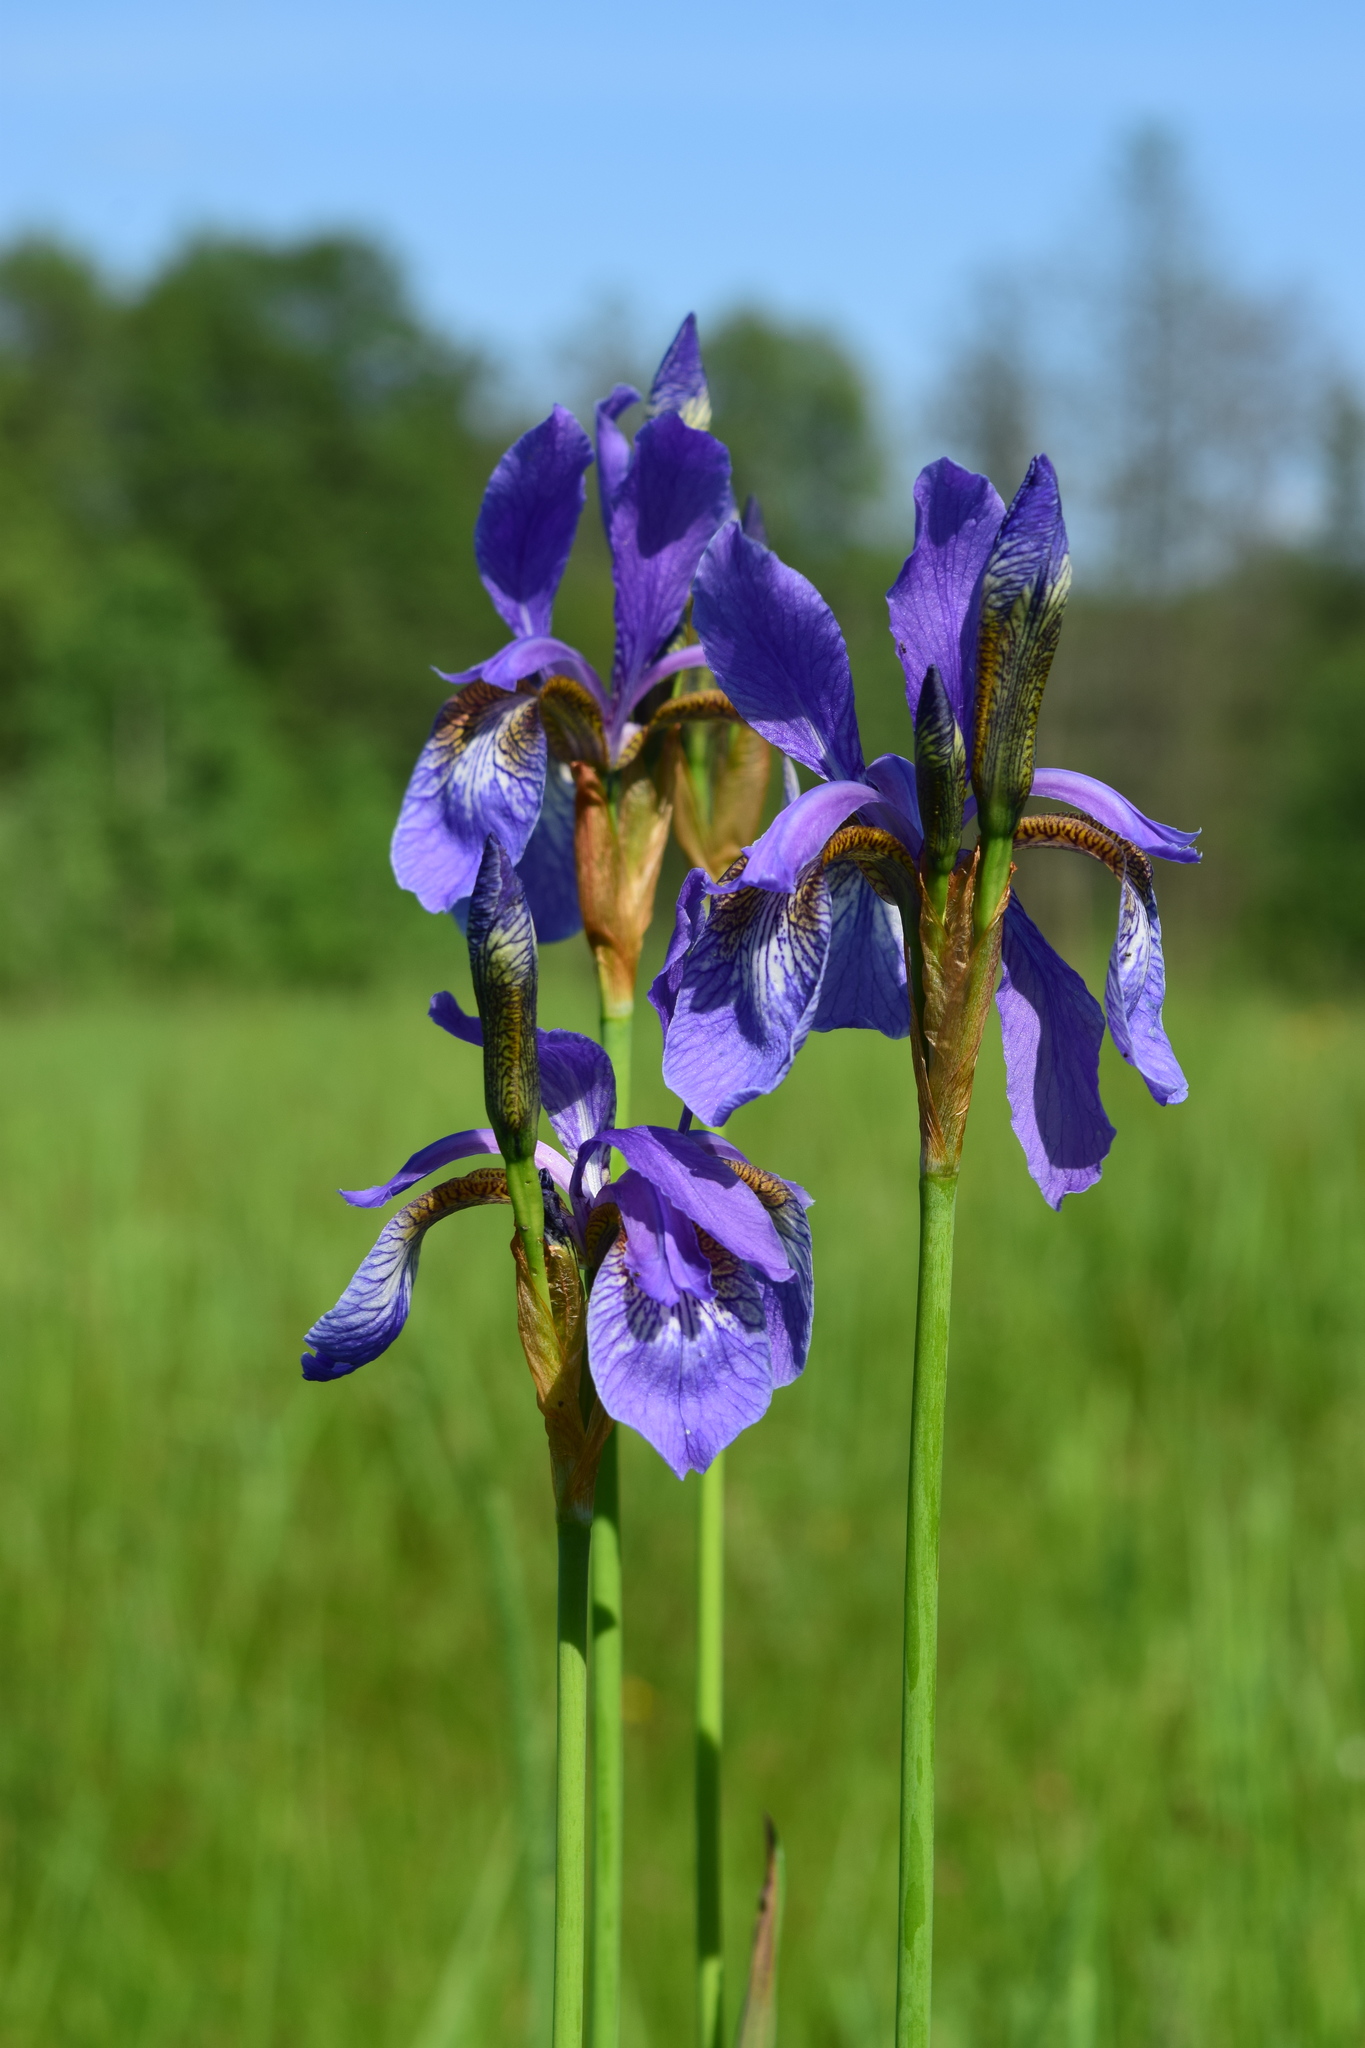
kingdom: Plantae
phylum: Tracheophyta
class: Liliopsida
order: Asparagales
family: Iridaceae
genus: Iris
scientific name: Iris sibirica
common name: Siberian iris
